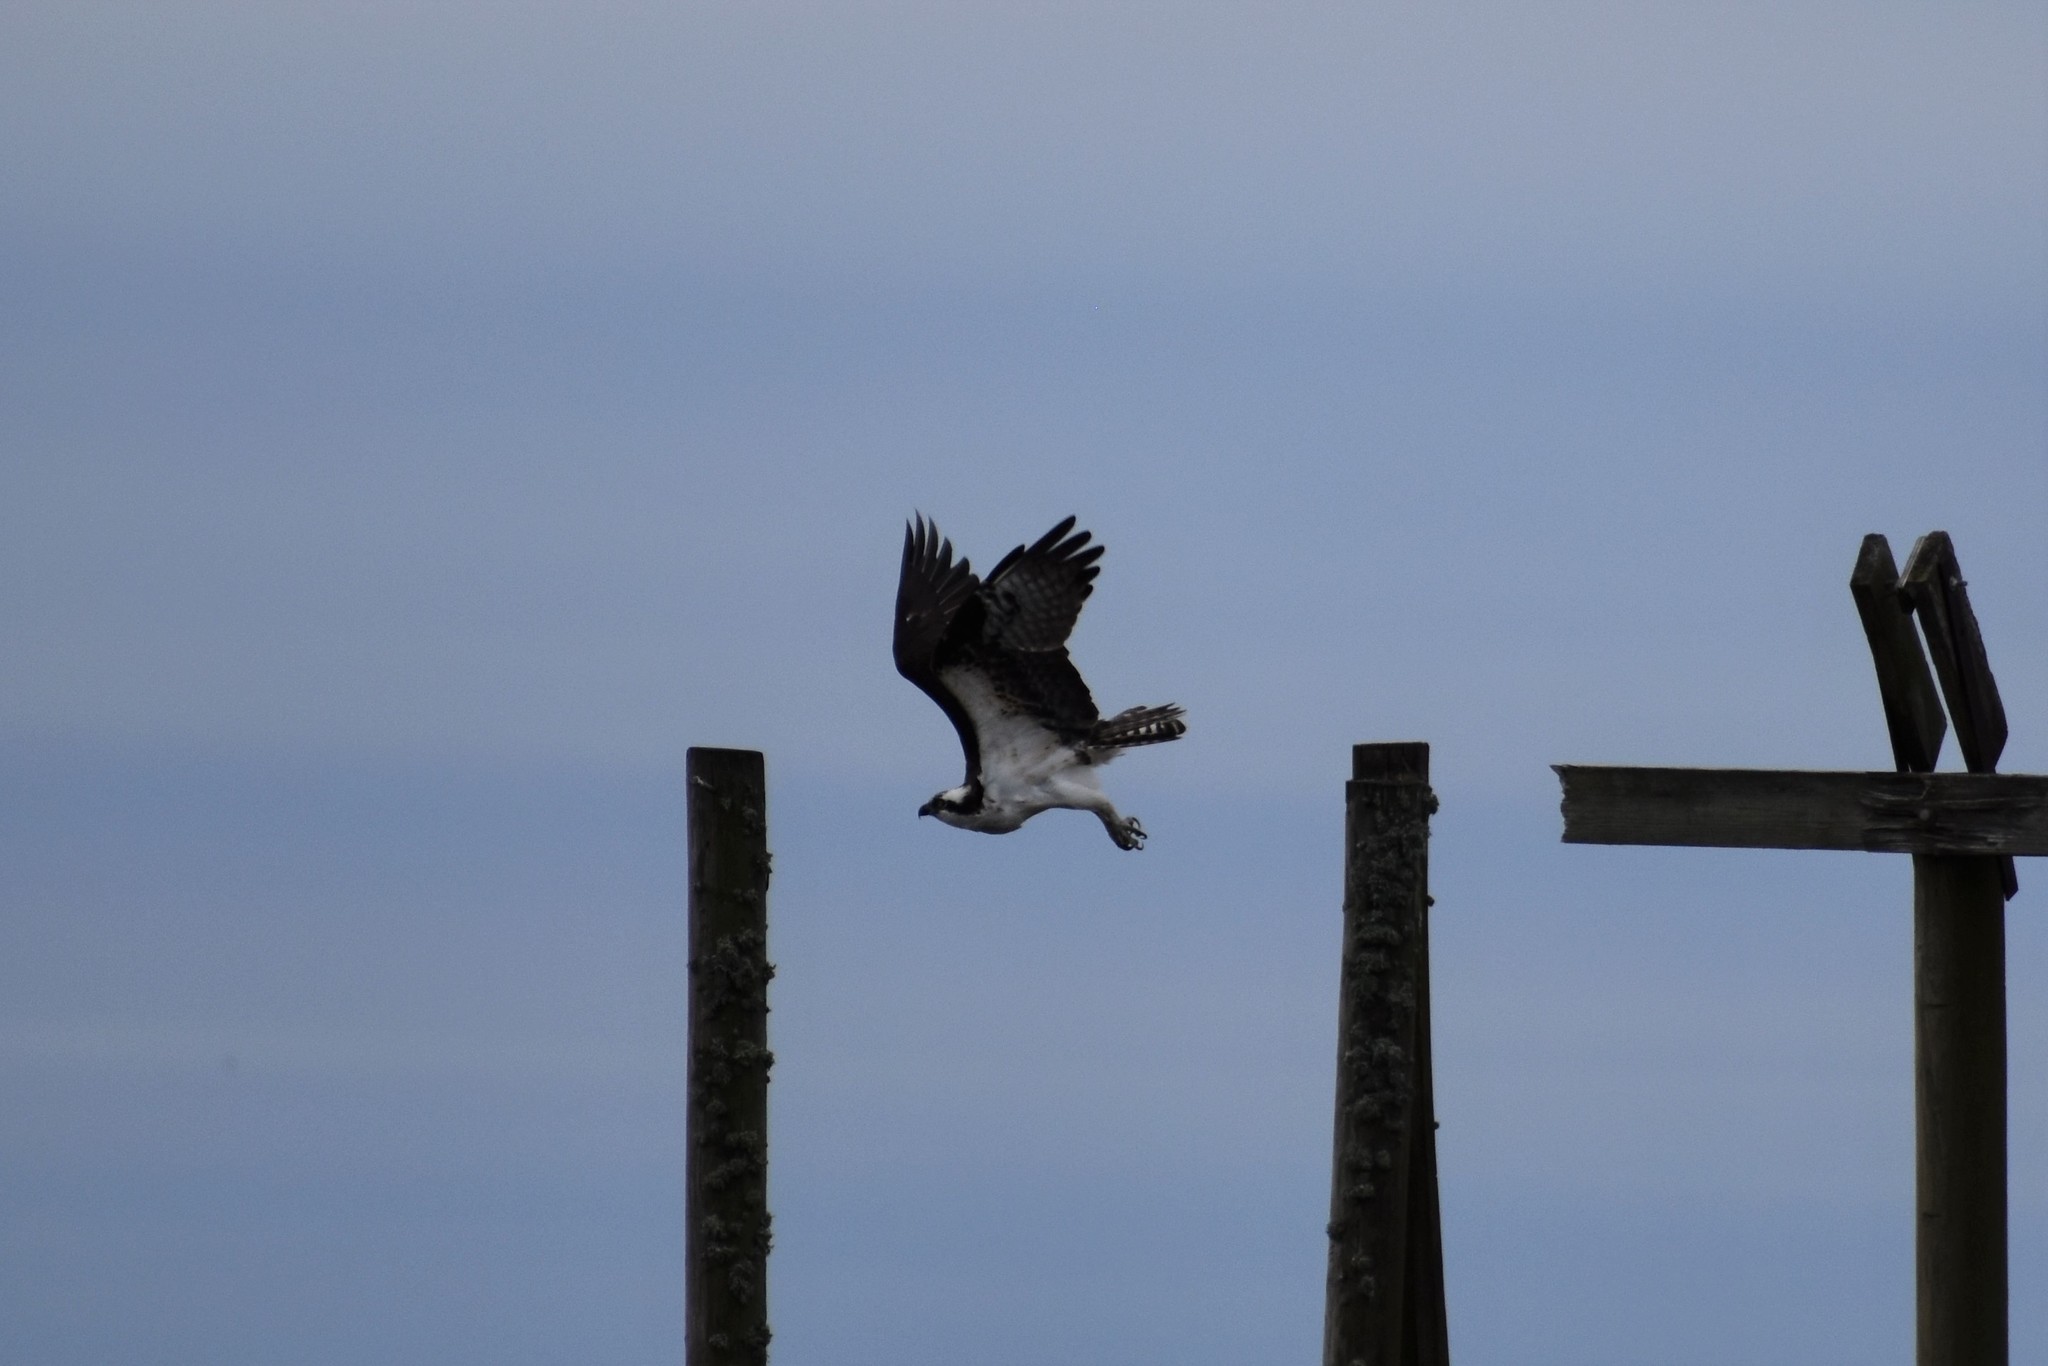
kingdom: Animalia
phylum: Chordata
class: Aves
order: Accipitriformes
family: Pandionidae
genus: Pandion
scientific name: Pandion haliaetus
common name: Osprey
